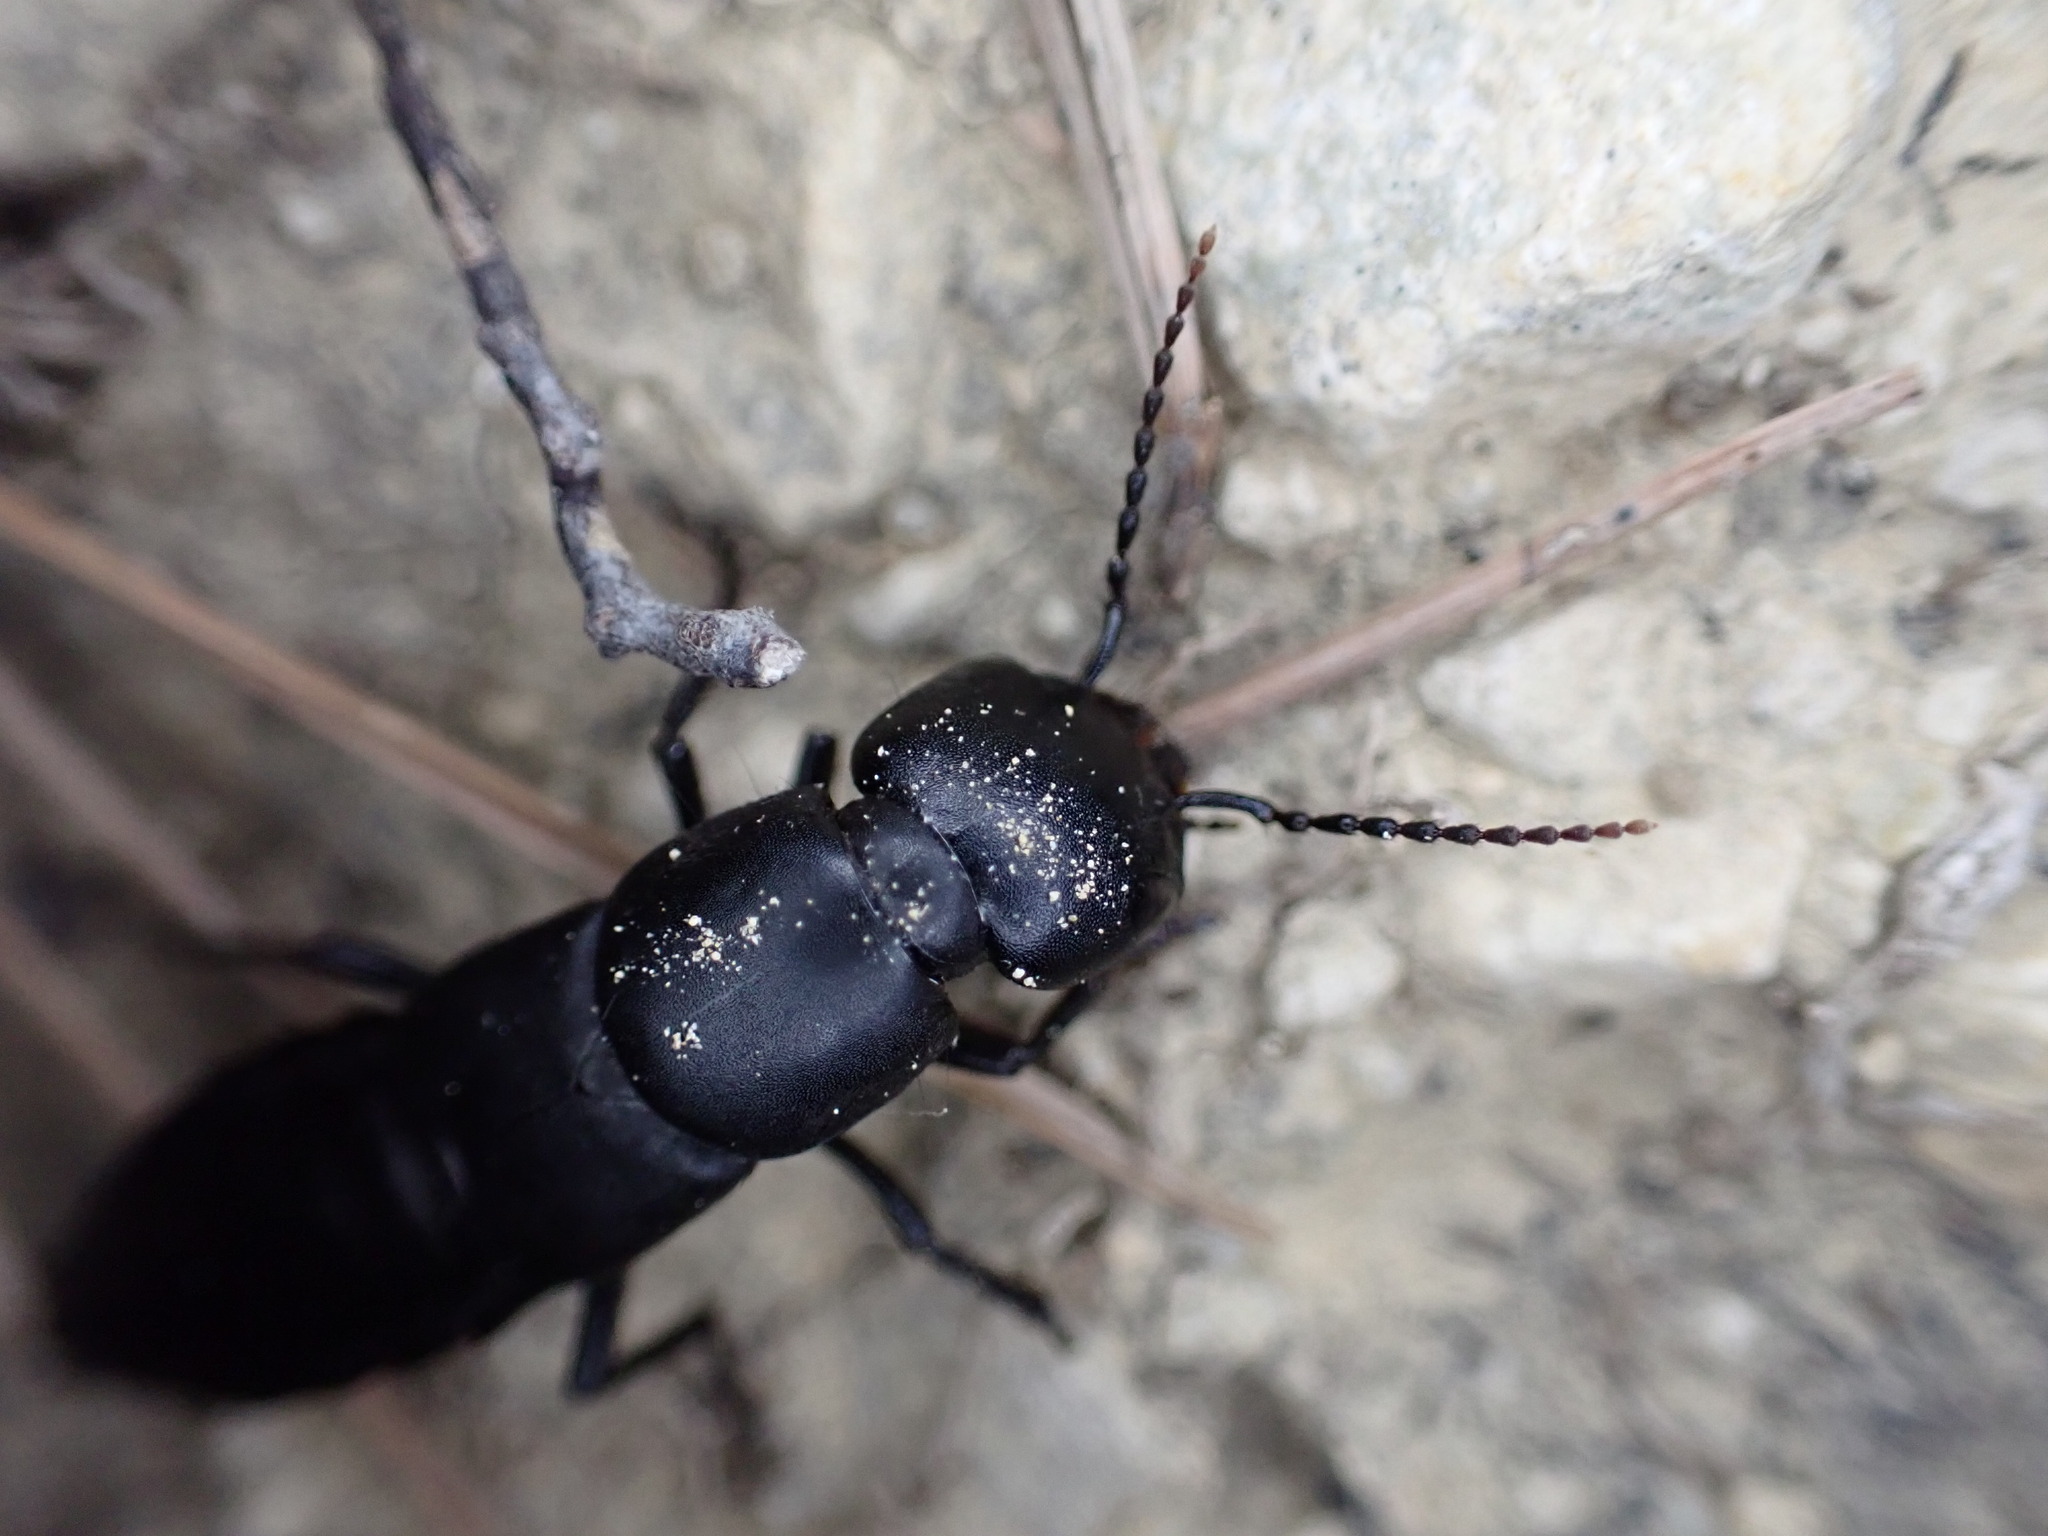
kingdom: Animalia
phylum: Arthropoda
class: Insecta
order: Coleoptera
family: Staphylinidae
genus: Ocypus
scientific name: Ocypus olens
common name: Devil's coach-horse
